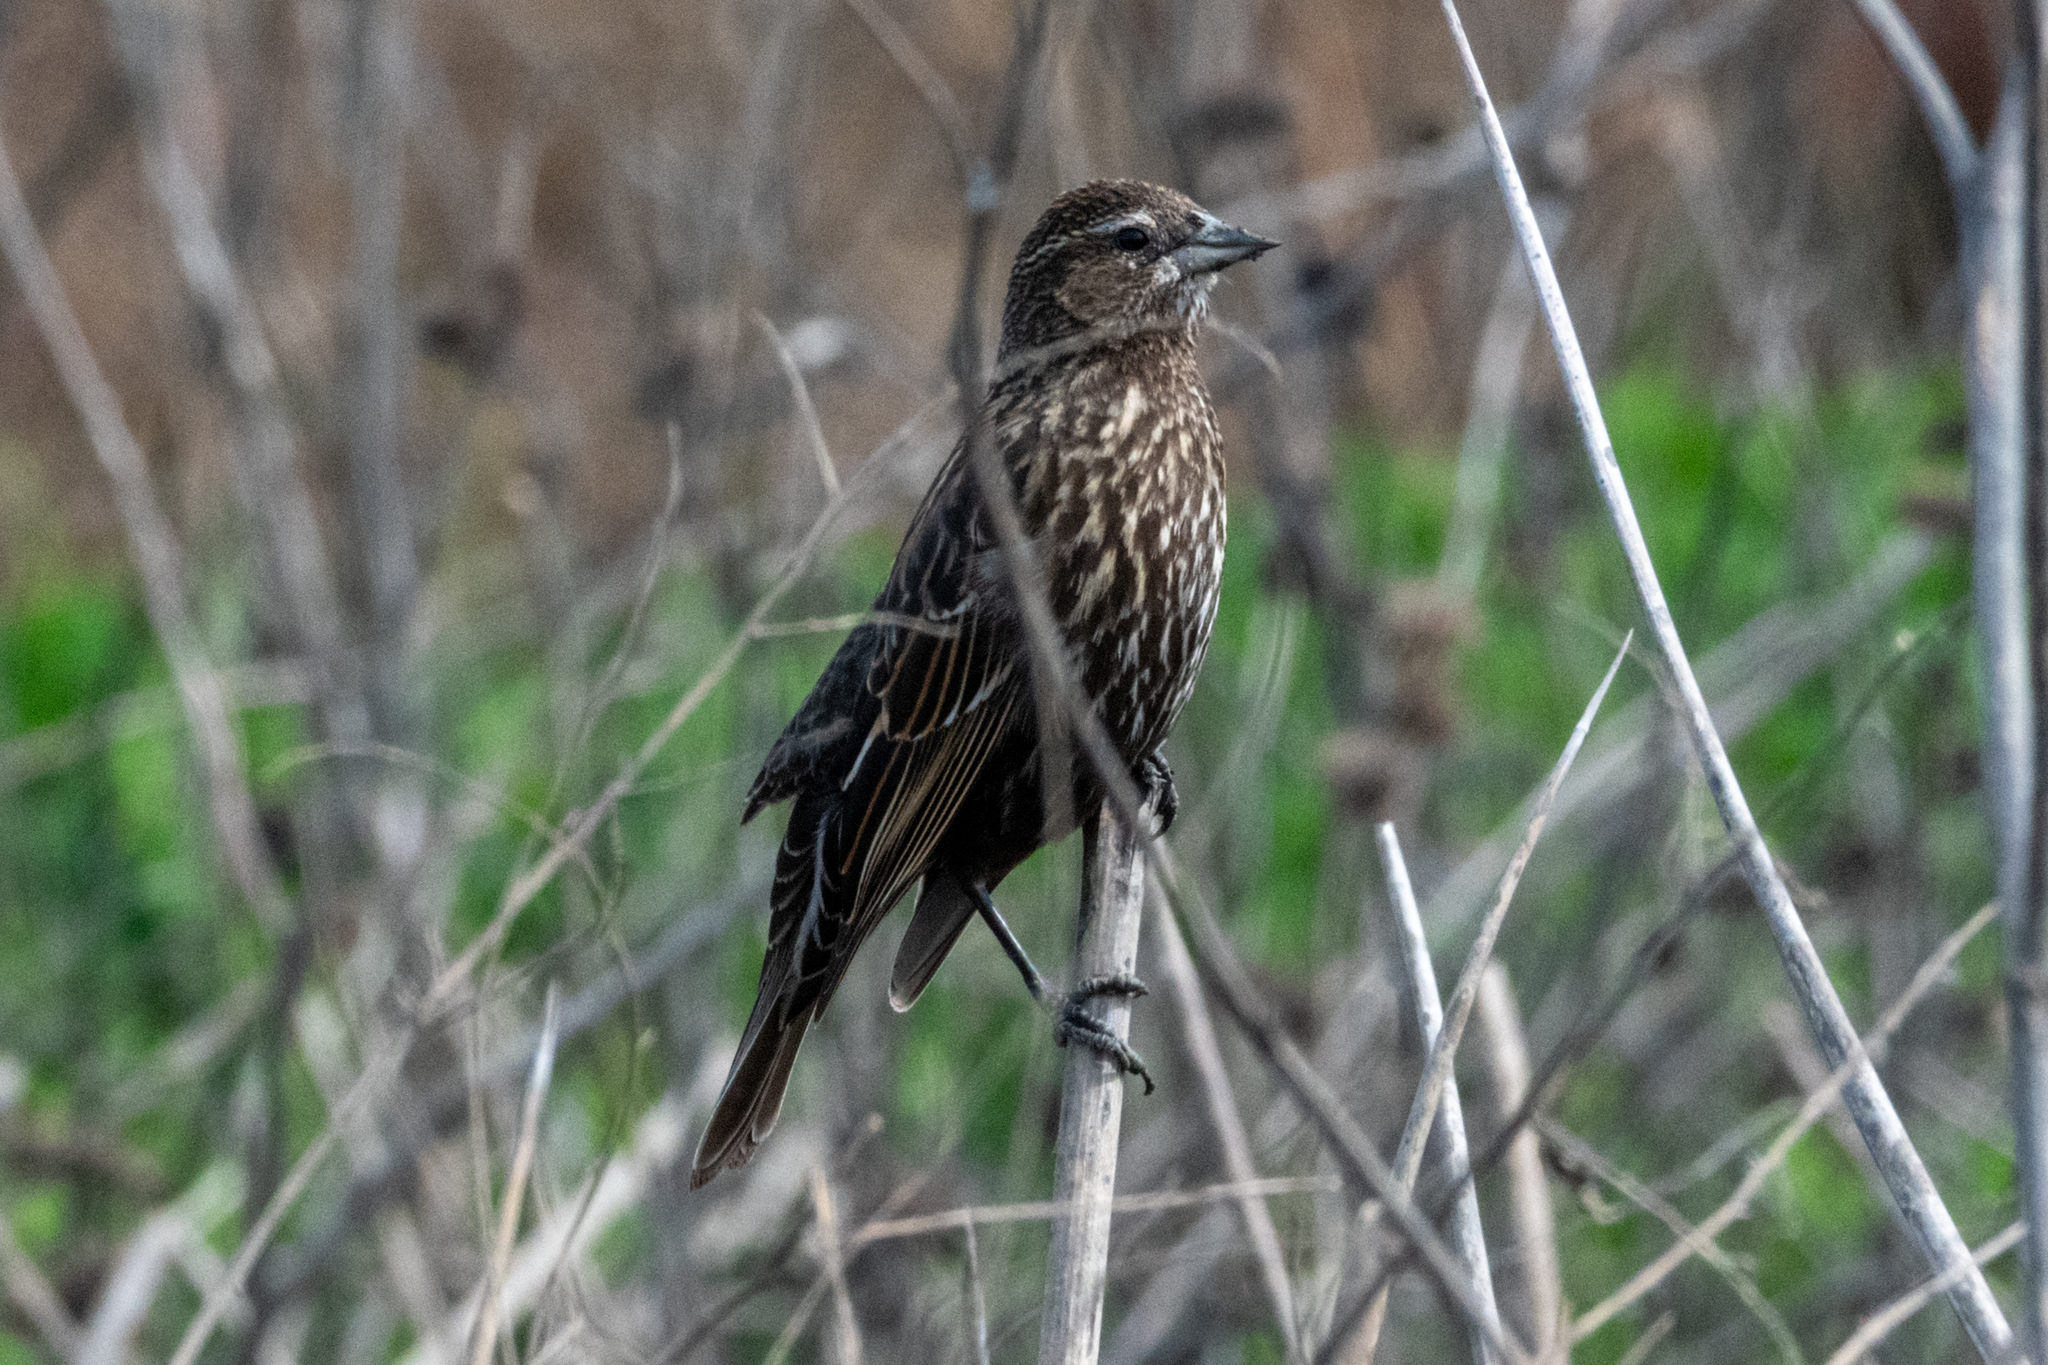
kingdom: Animalia
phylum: Chordata
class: Aves
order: Passeriformes
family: Icteridae
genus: Agelaius
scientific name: Agelaius phoeniceus
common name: Red-winged blackbird
